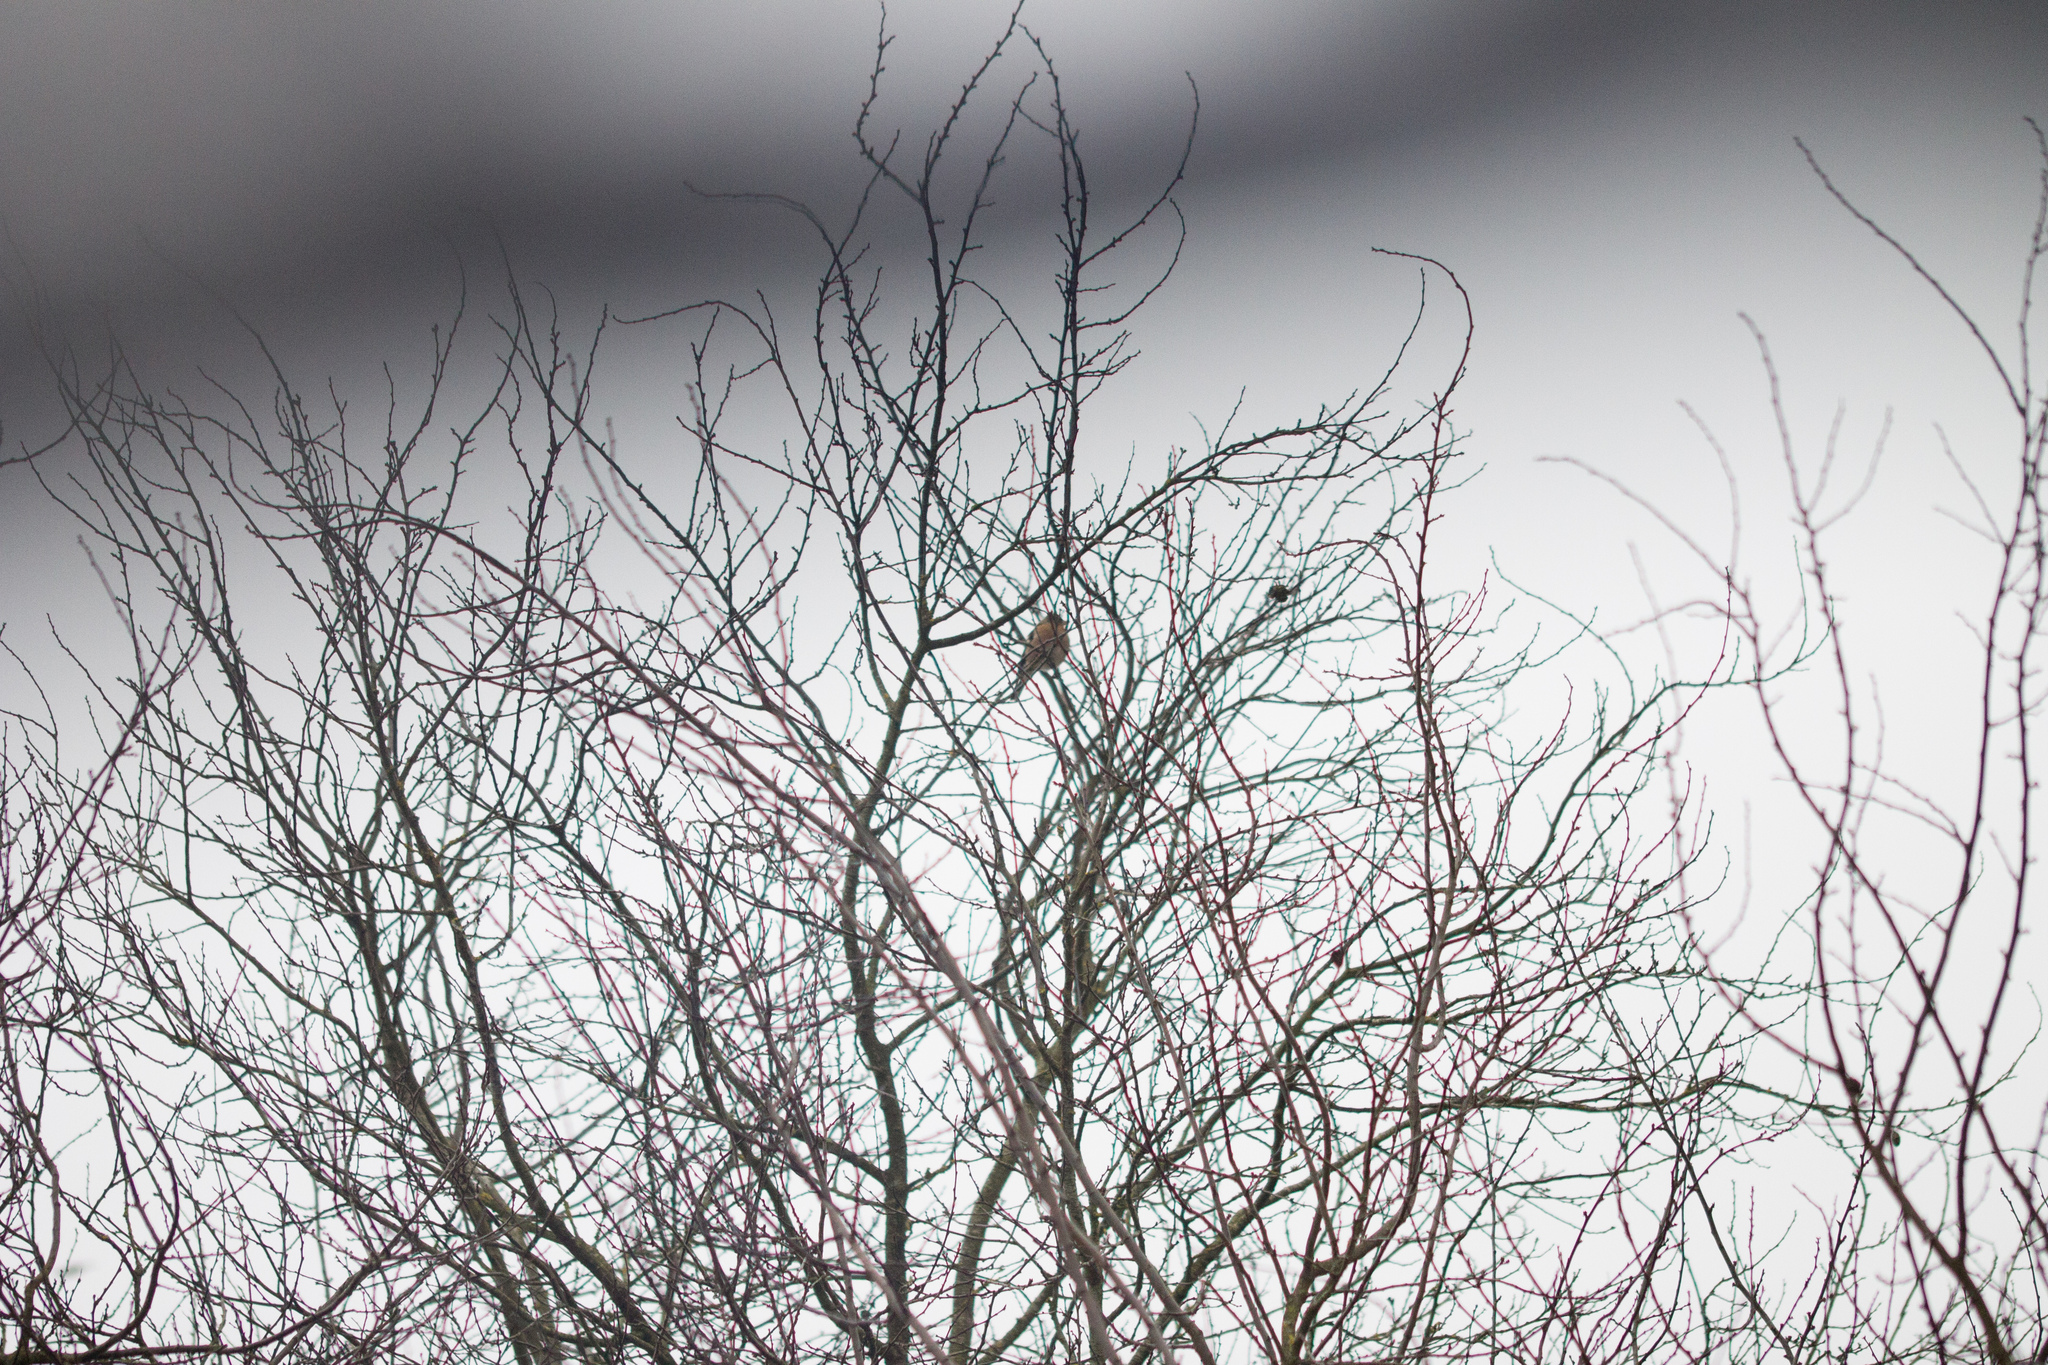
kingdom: Animalia
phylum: Chordata
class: Aves
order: Passeriformes
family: Fringillidae
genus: Fringilla
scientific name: Fringilla coelebs
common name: Common chaffinch
